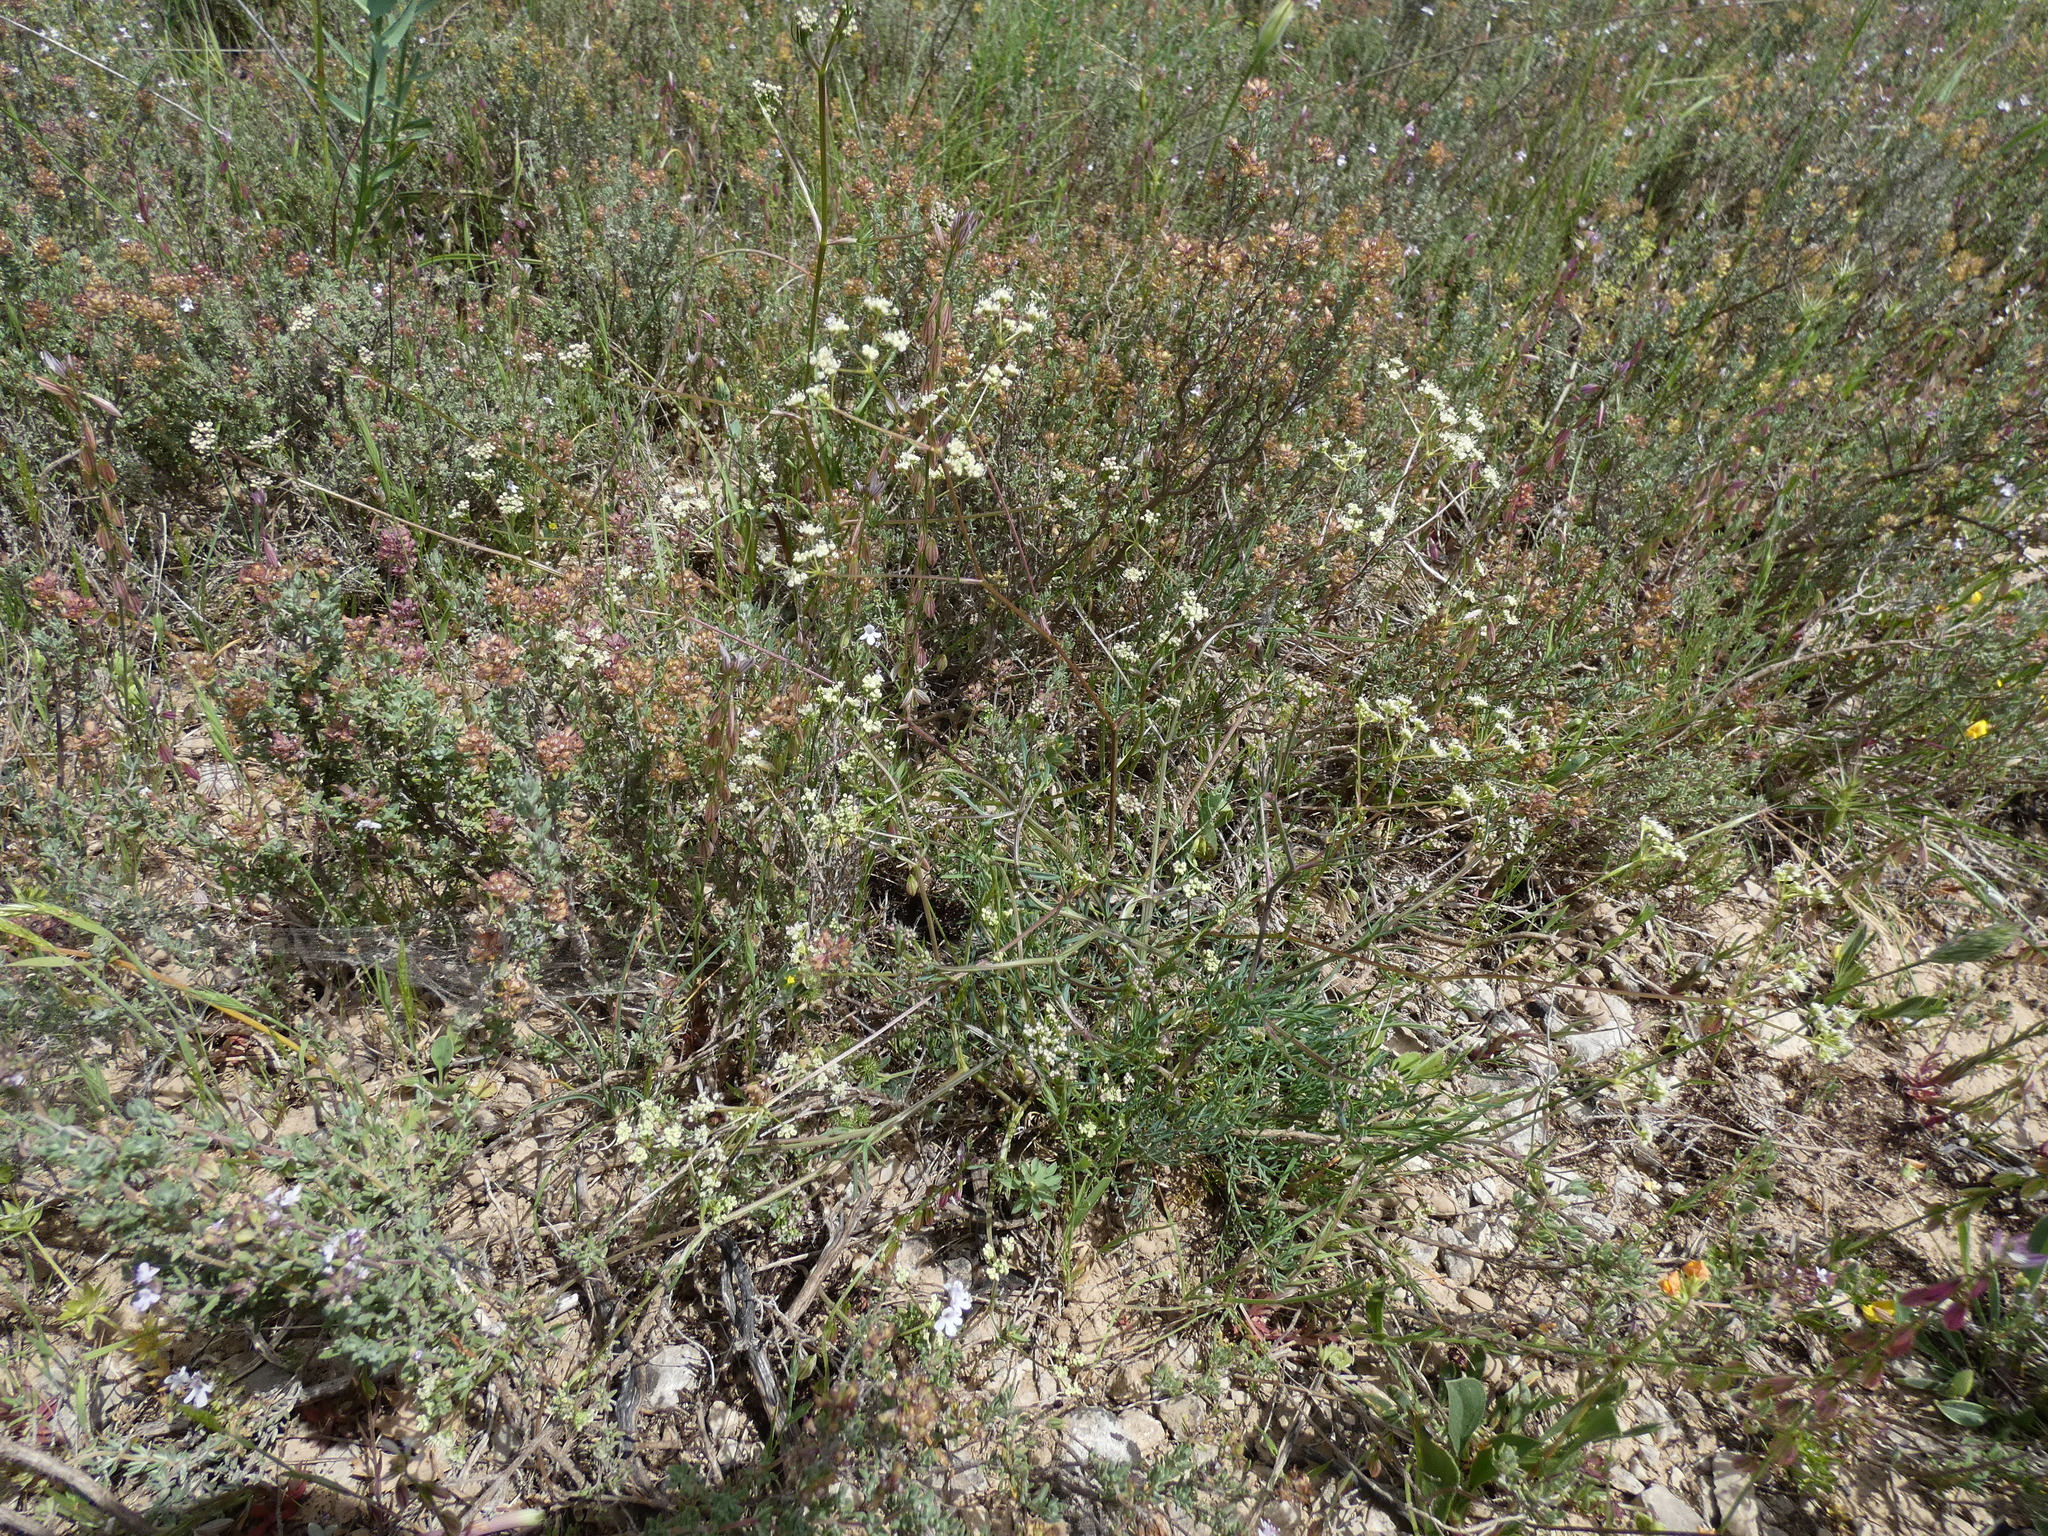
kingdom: Plantae
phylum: Tracheophyta
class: Magnoliopsida
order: Apiales
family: Apiaceae
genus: Trinia
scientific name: Trinia glauca
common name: Honewort
